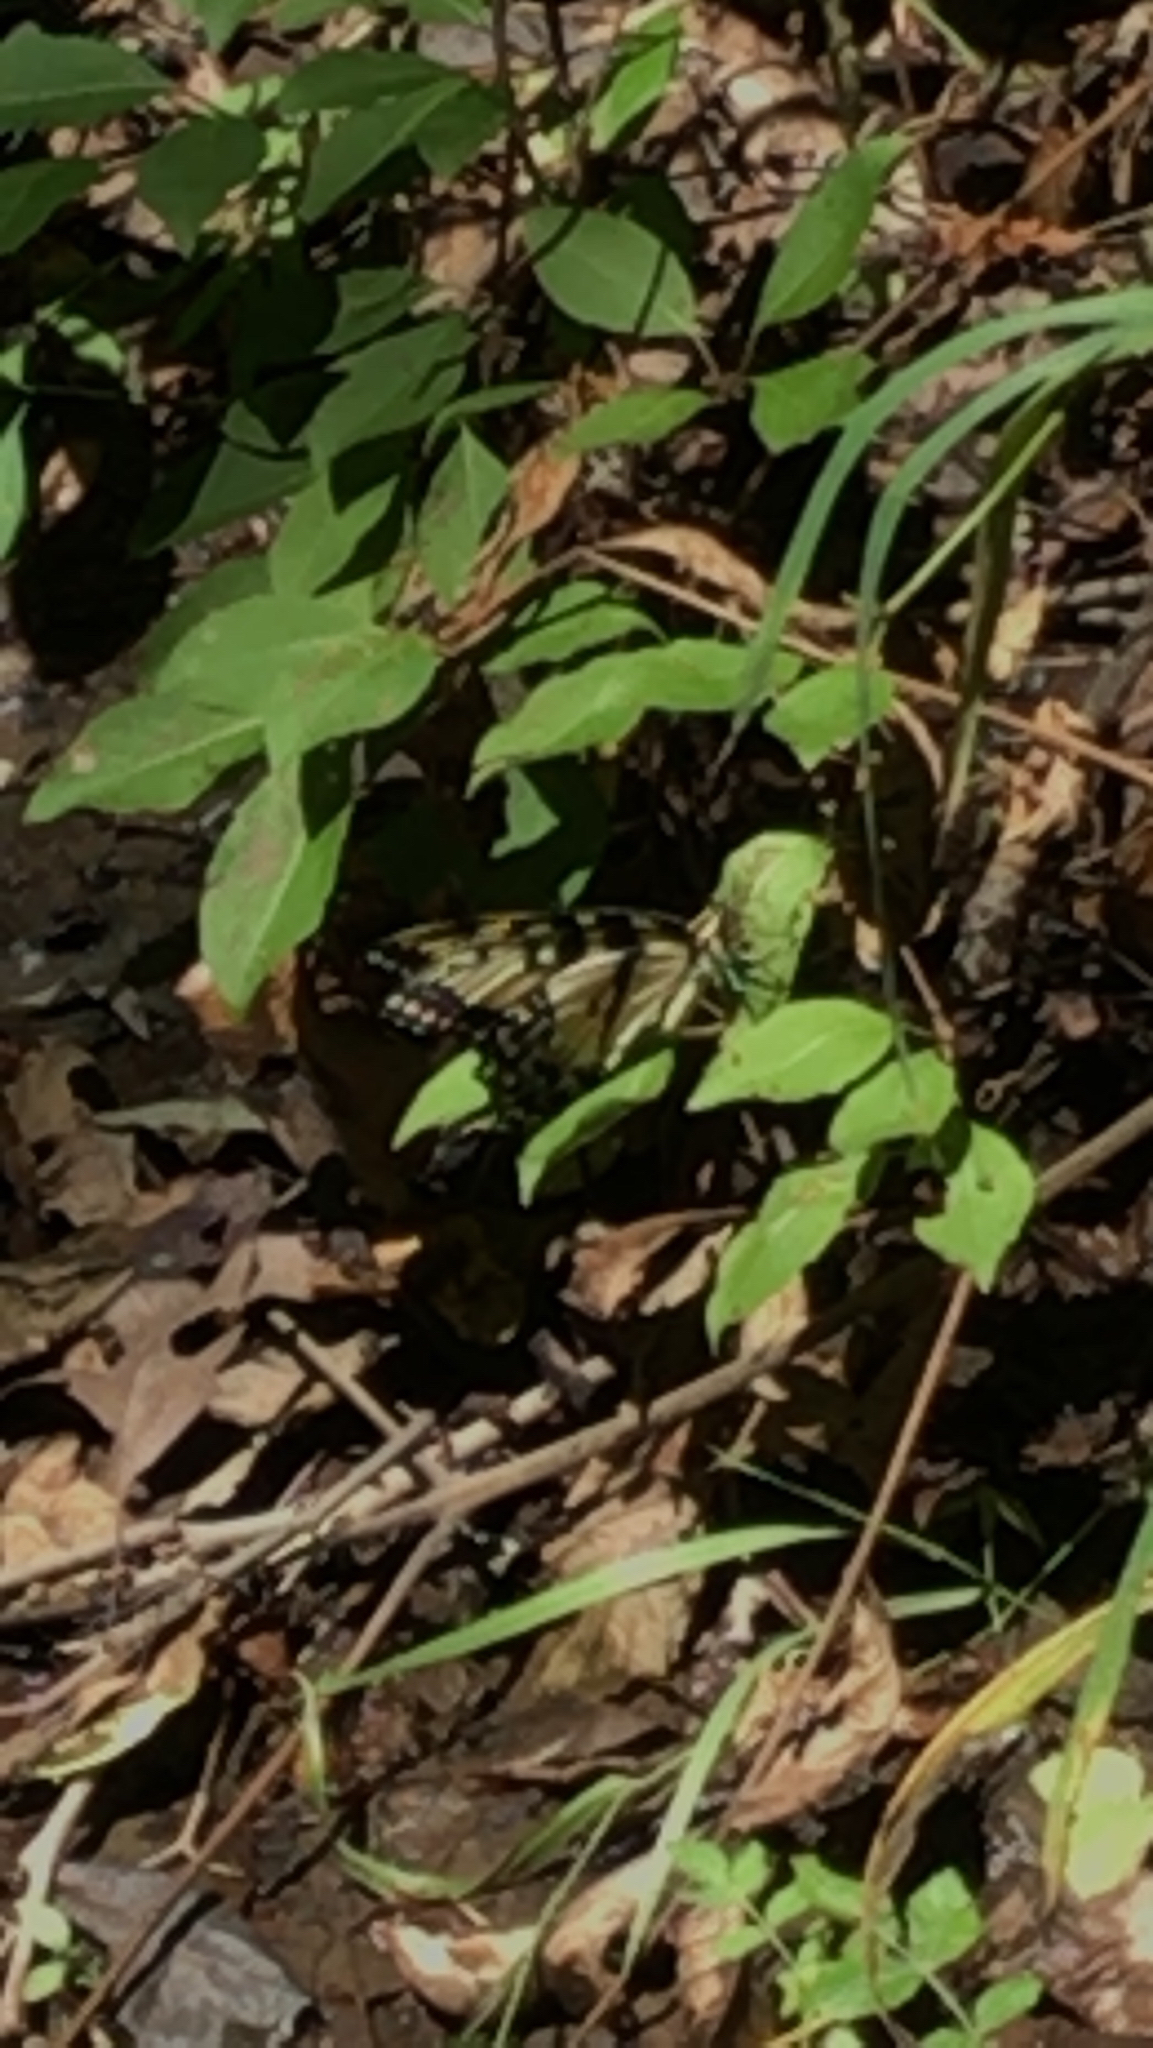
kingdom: Animalia
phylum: Arthropoda
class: Insecta
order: Lepidoptera
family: Papilionidae
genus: Papilio
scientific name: Papilio glaucus
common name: Tiger swallowtail
